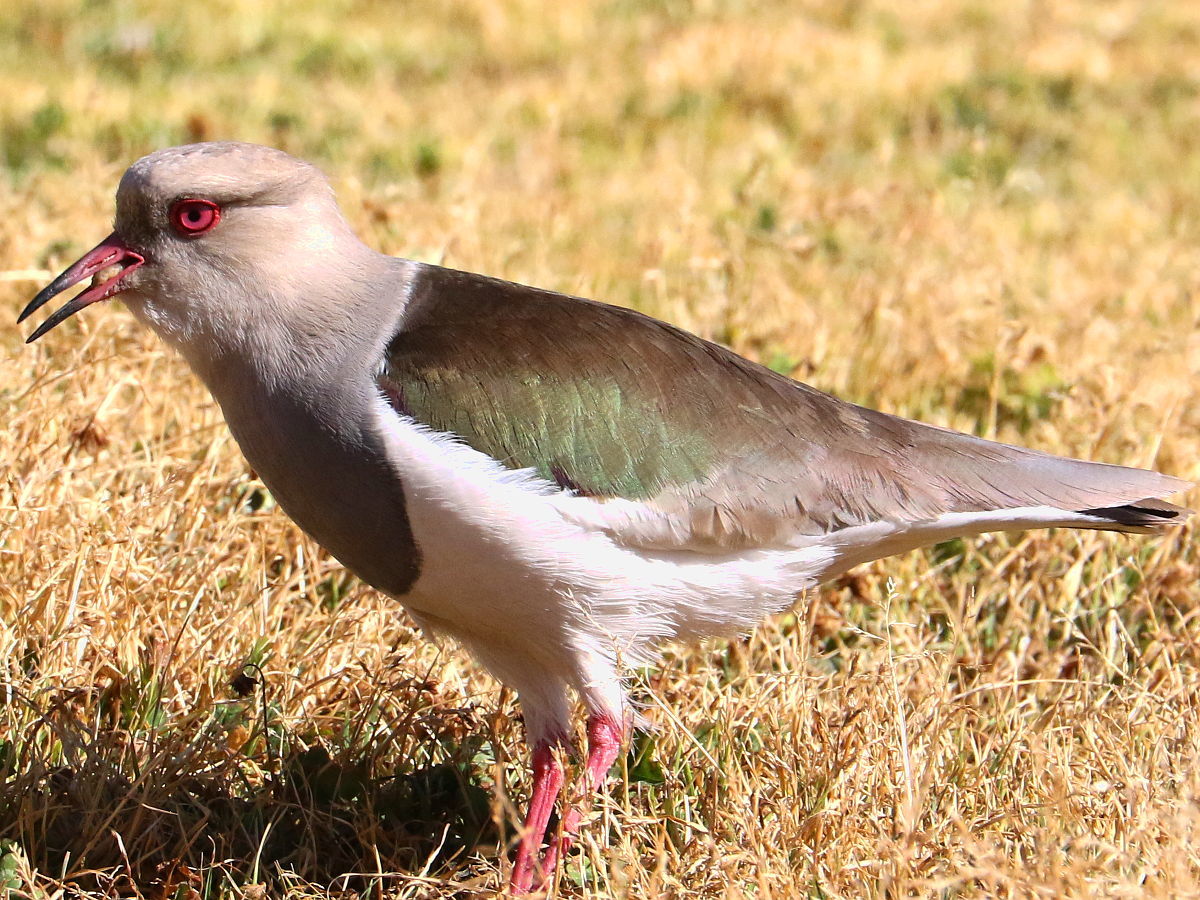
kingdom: Animalia
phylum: Chordata
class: Aves
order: Charadriiformes
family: Charadriidae
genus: Vanellus
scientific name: Vanellus resplendens
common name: Andean lapwing
